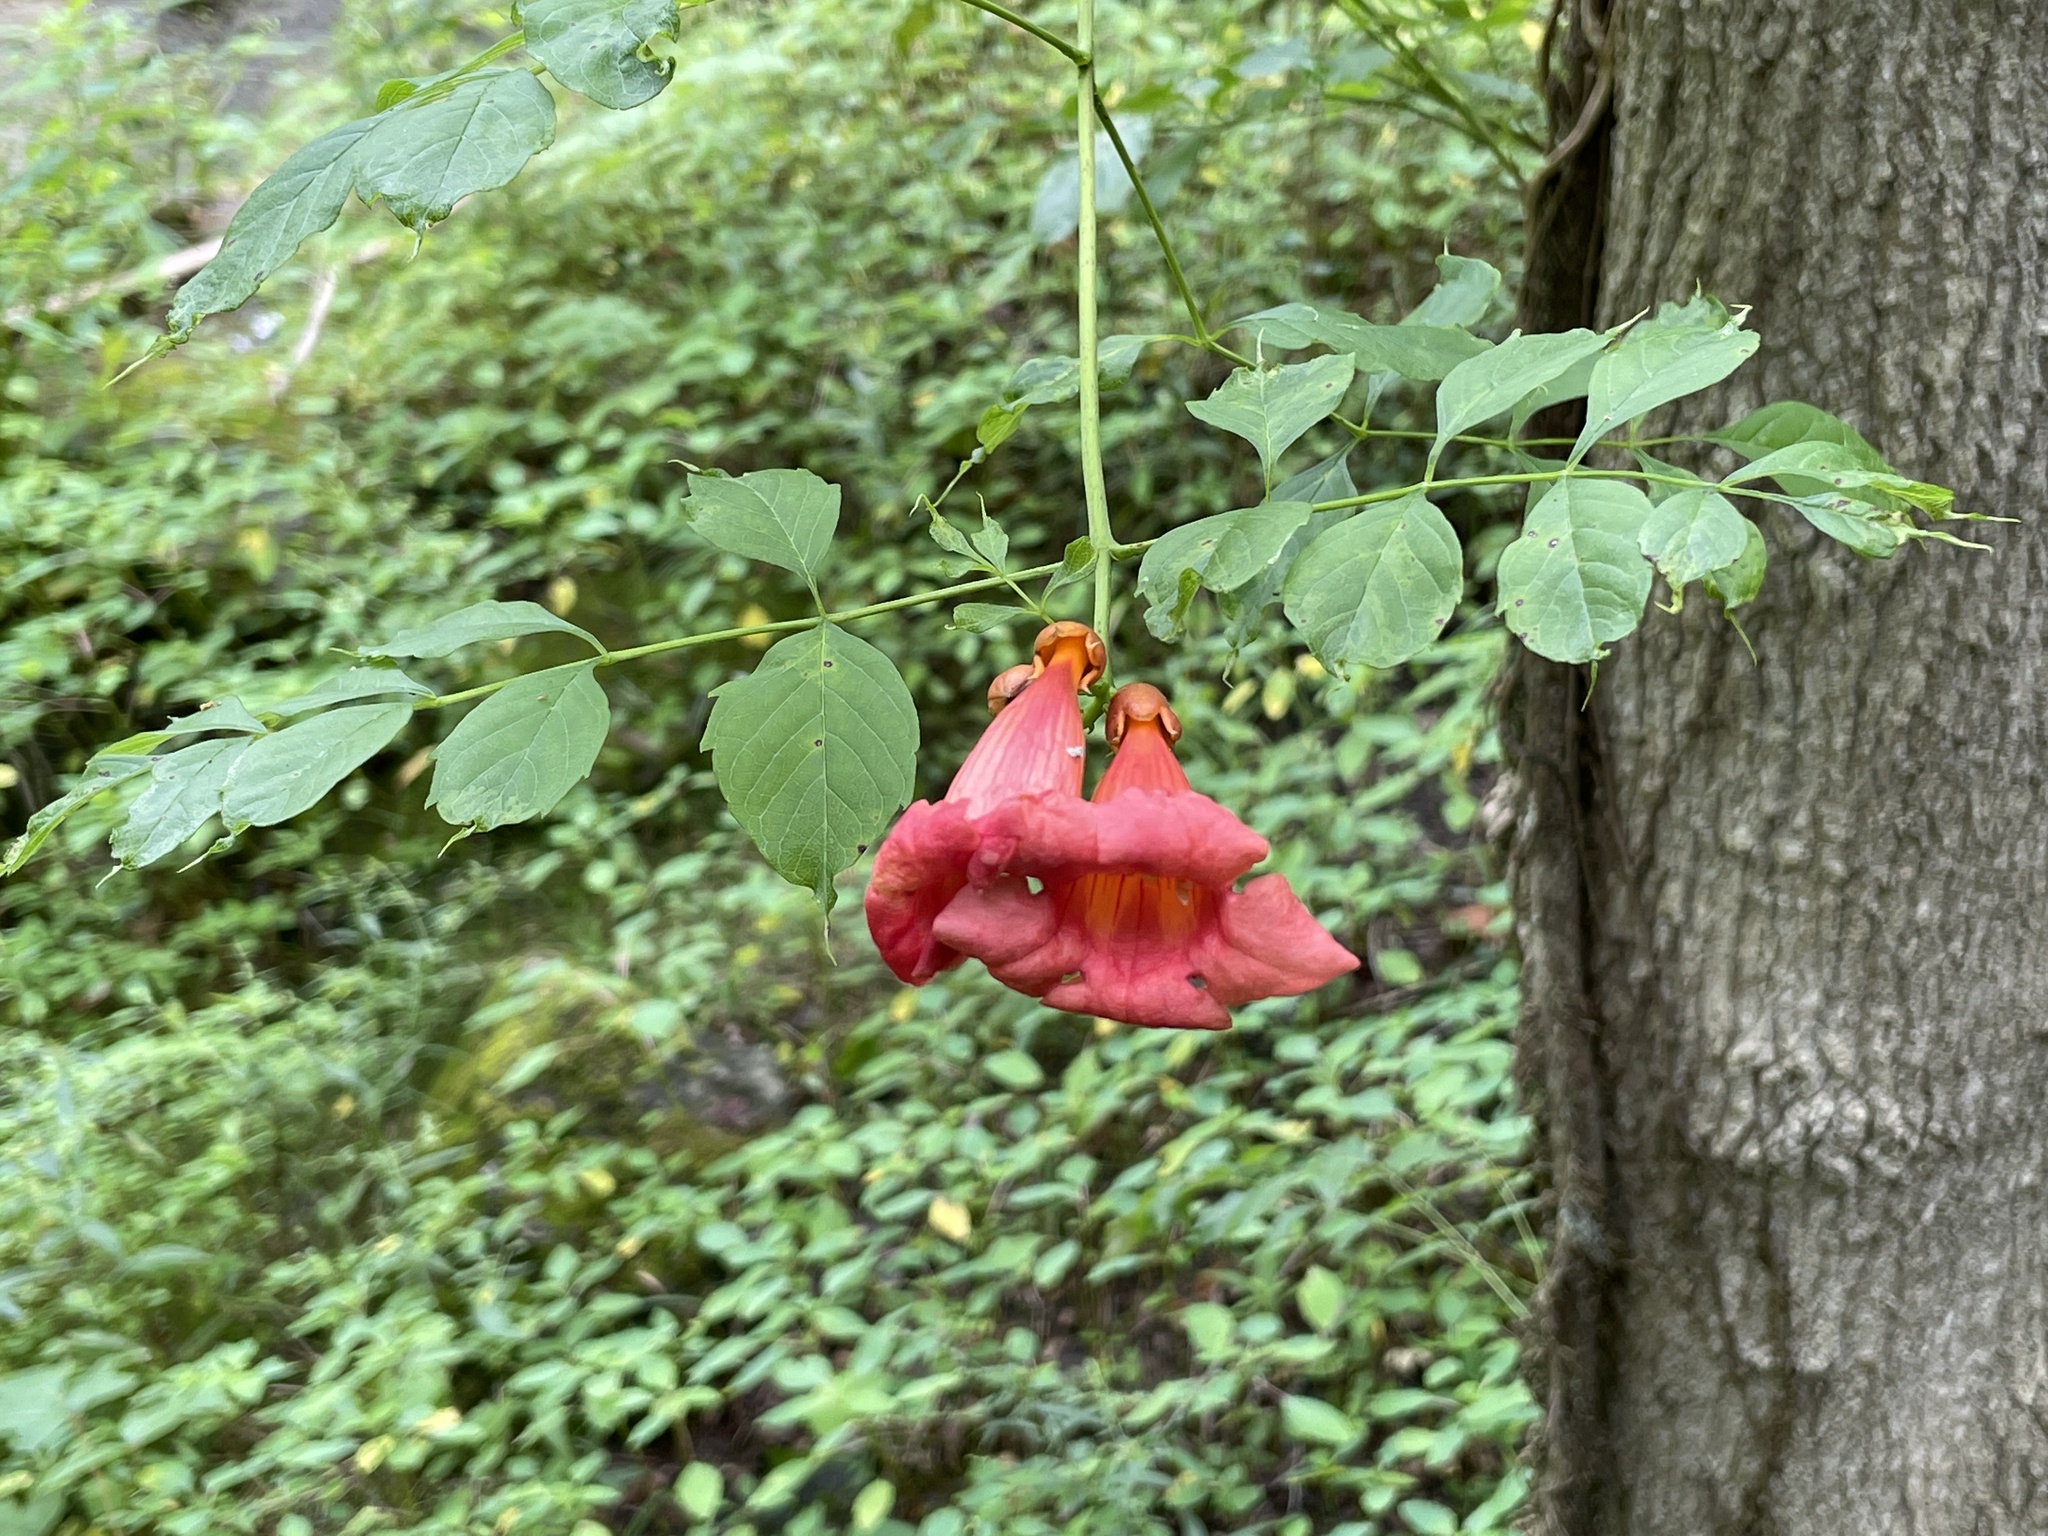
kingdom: Plantae
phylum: Tracheophyta
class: Magnoliopsida
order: Lamiales
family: Bignoniaceae
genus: Campsis
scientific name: Campsis radicans
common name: Trumpet-creeper
